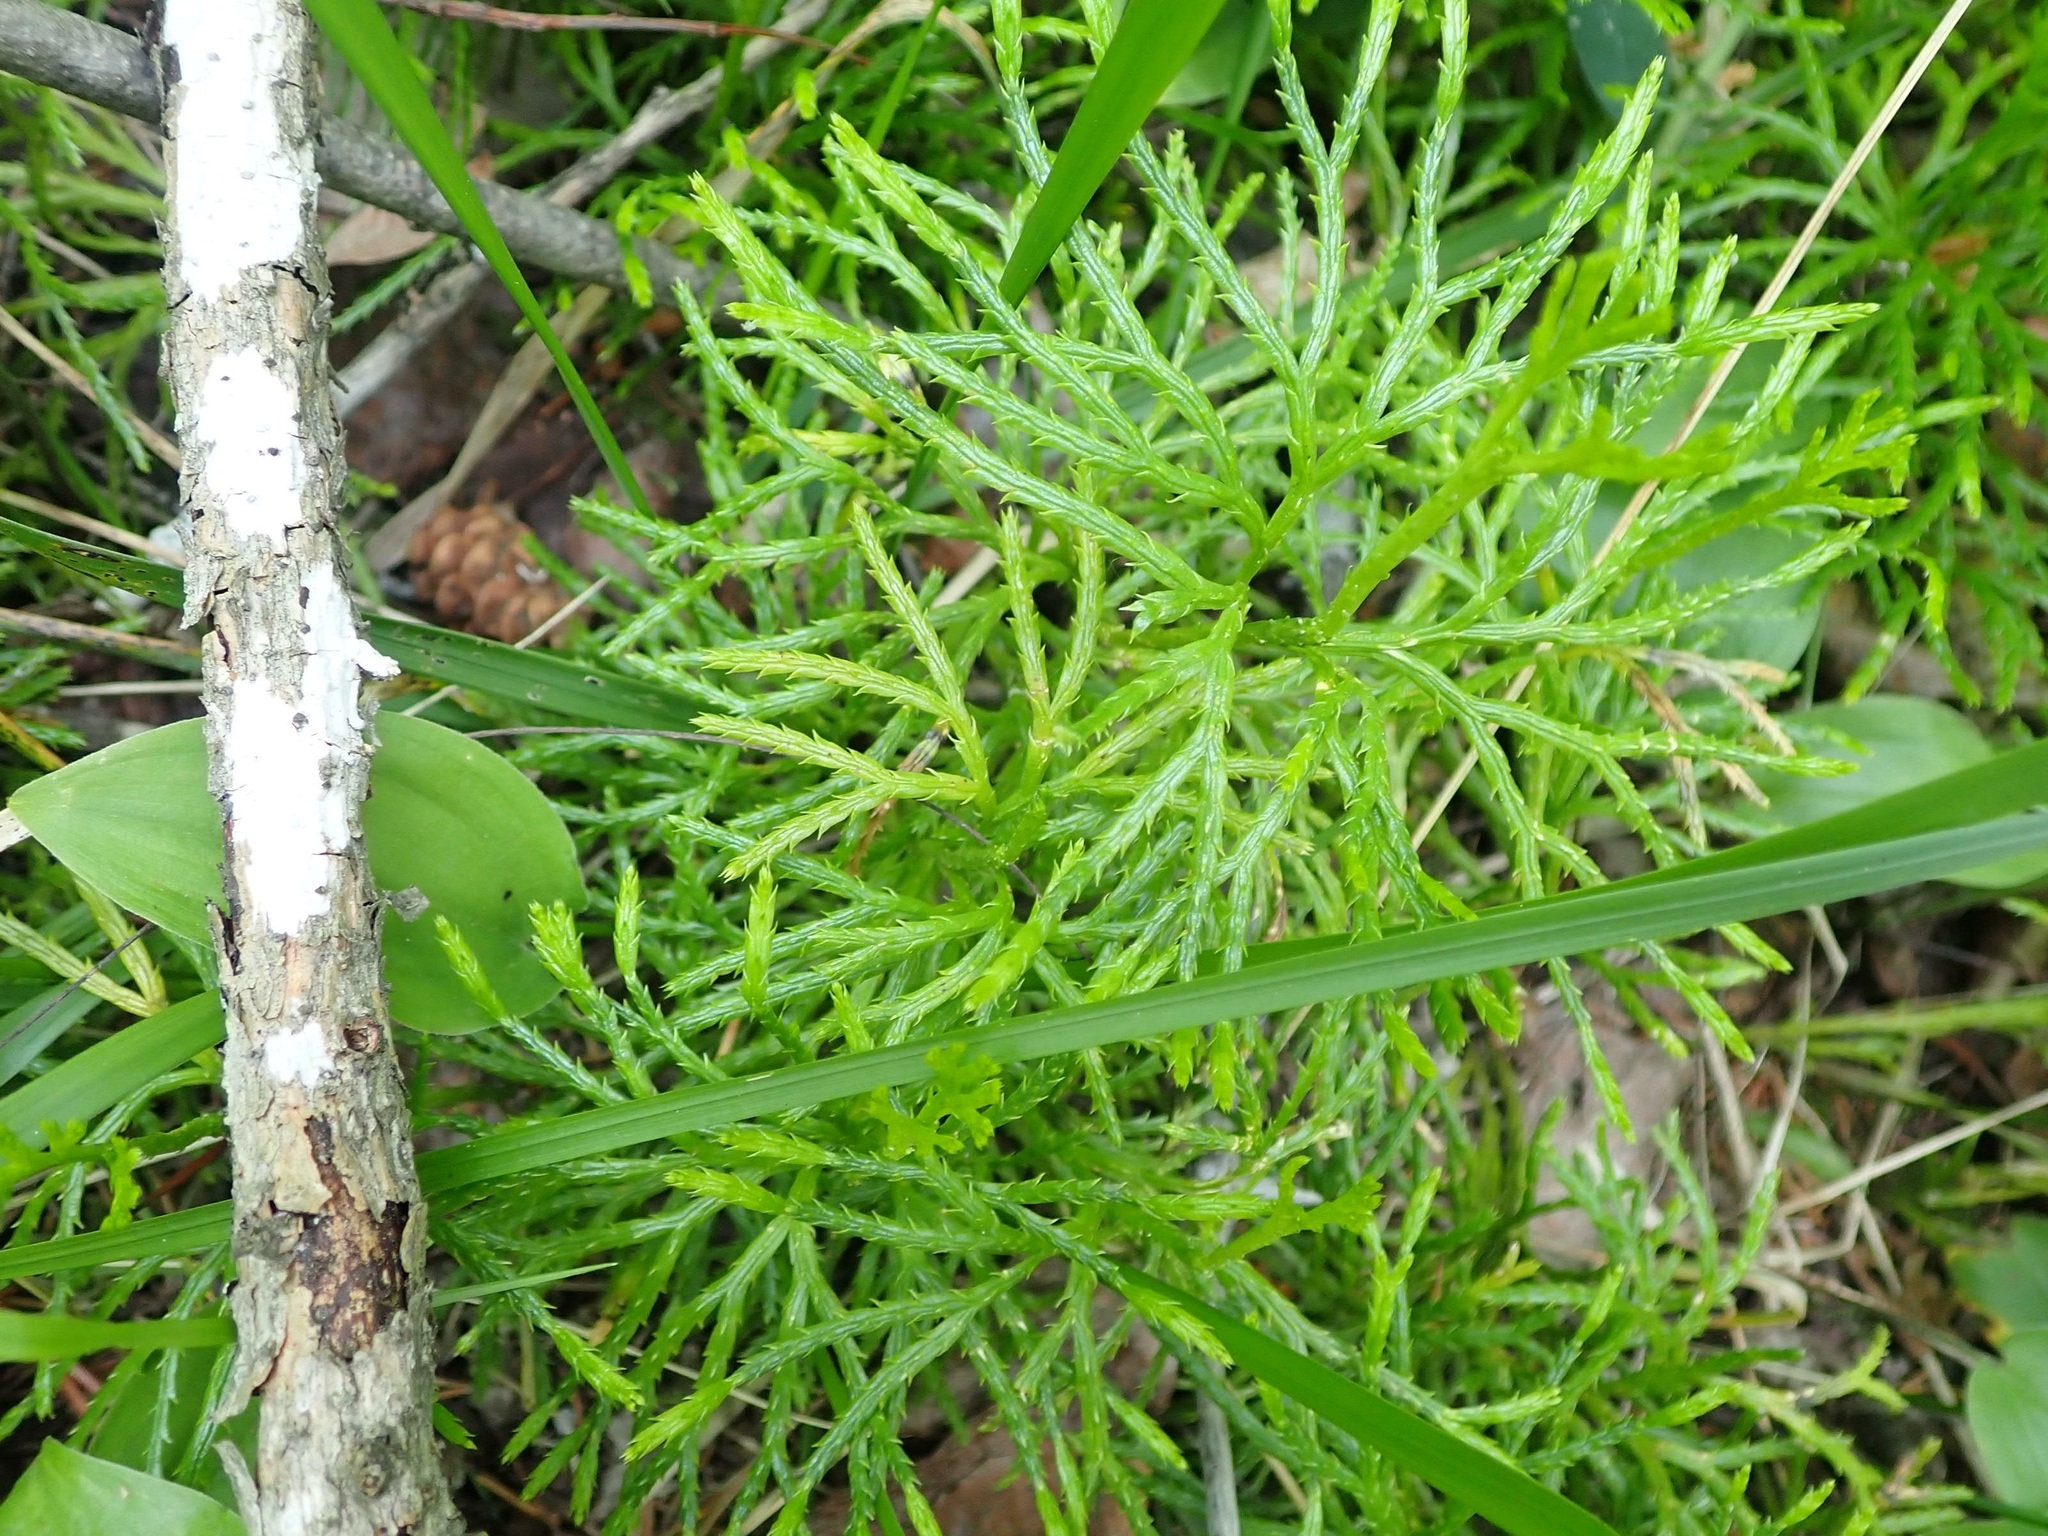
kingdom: Plantae
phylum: Tracheophyta
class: Lycopodiopsida
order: Lycopodiales
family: Lycopodiaceae
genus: Diphasiastrum
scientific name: Diphasiastrum complanatum
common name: Northern running-pine
